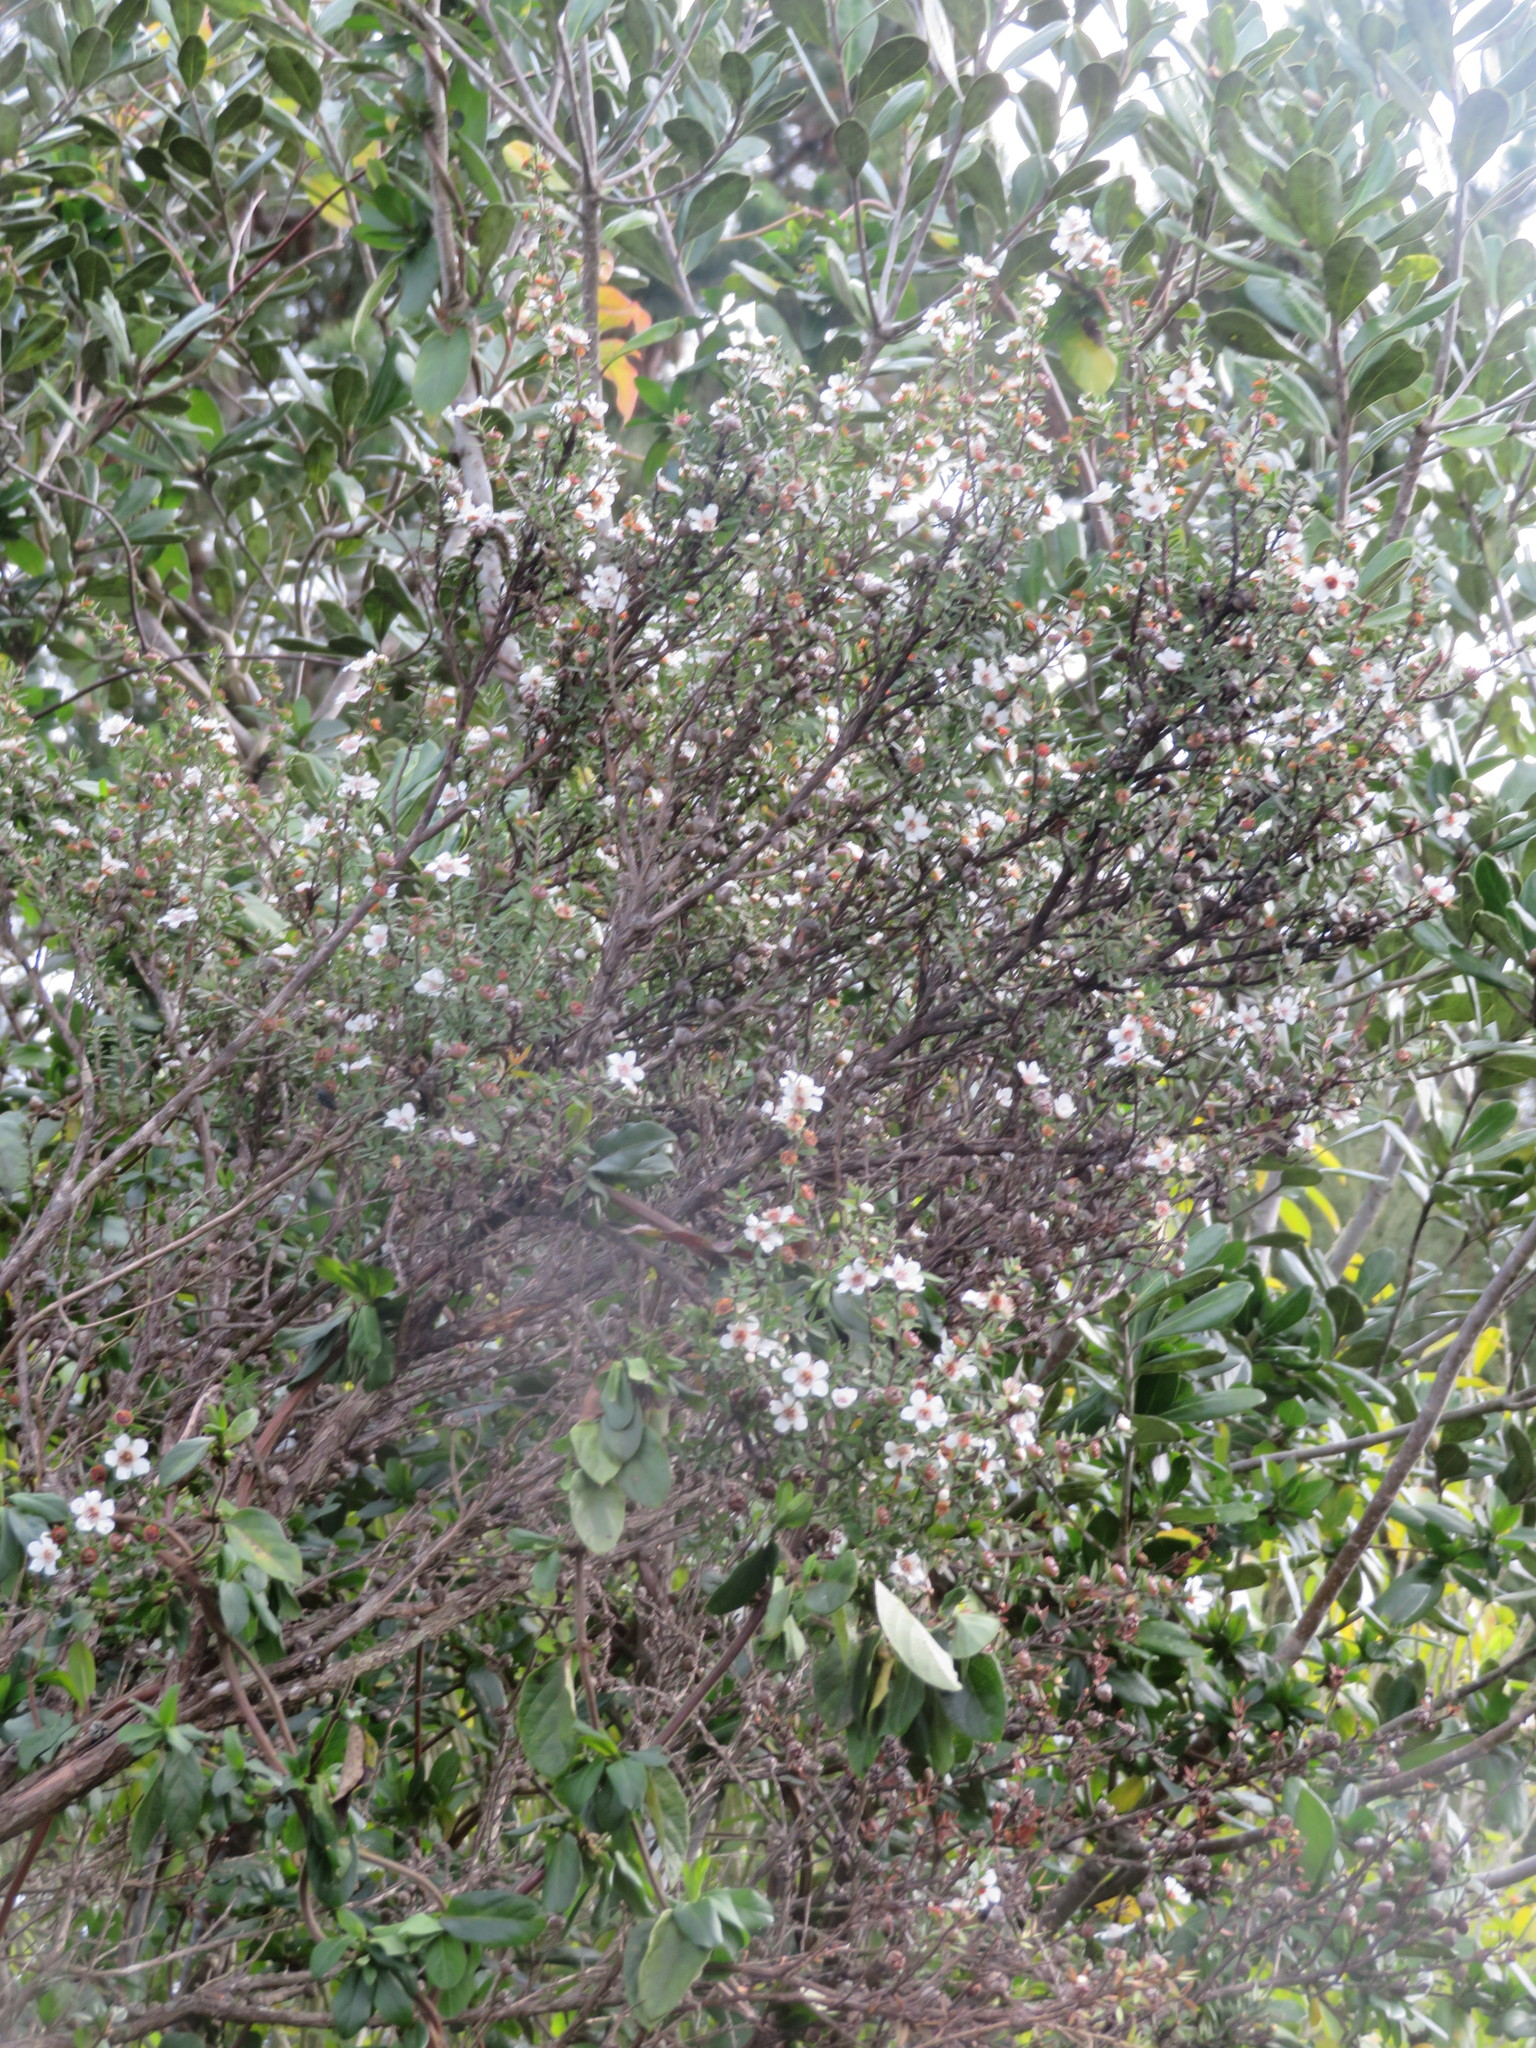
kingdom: Plantae
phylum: Tracheophyta
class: Magnoliopsida
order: Myrtales
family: Myrtaceae
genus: Leptospermum
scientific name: Leptospermum scoparium
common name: Broom tea-tree
